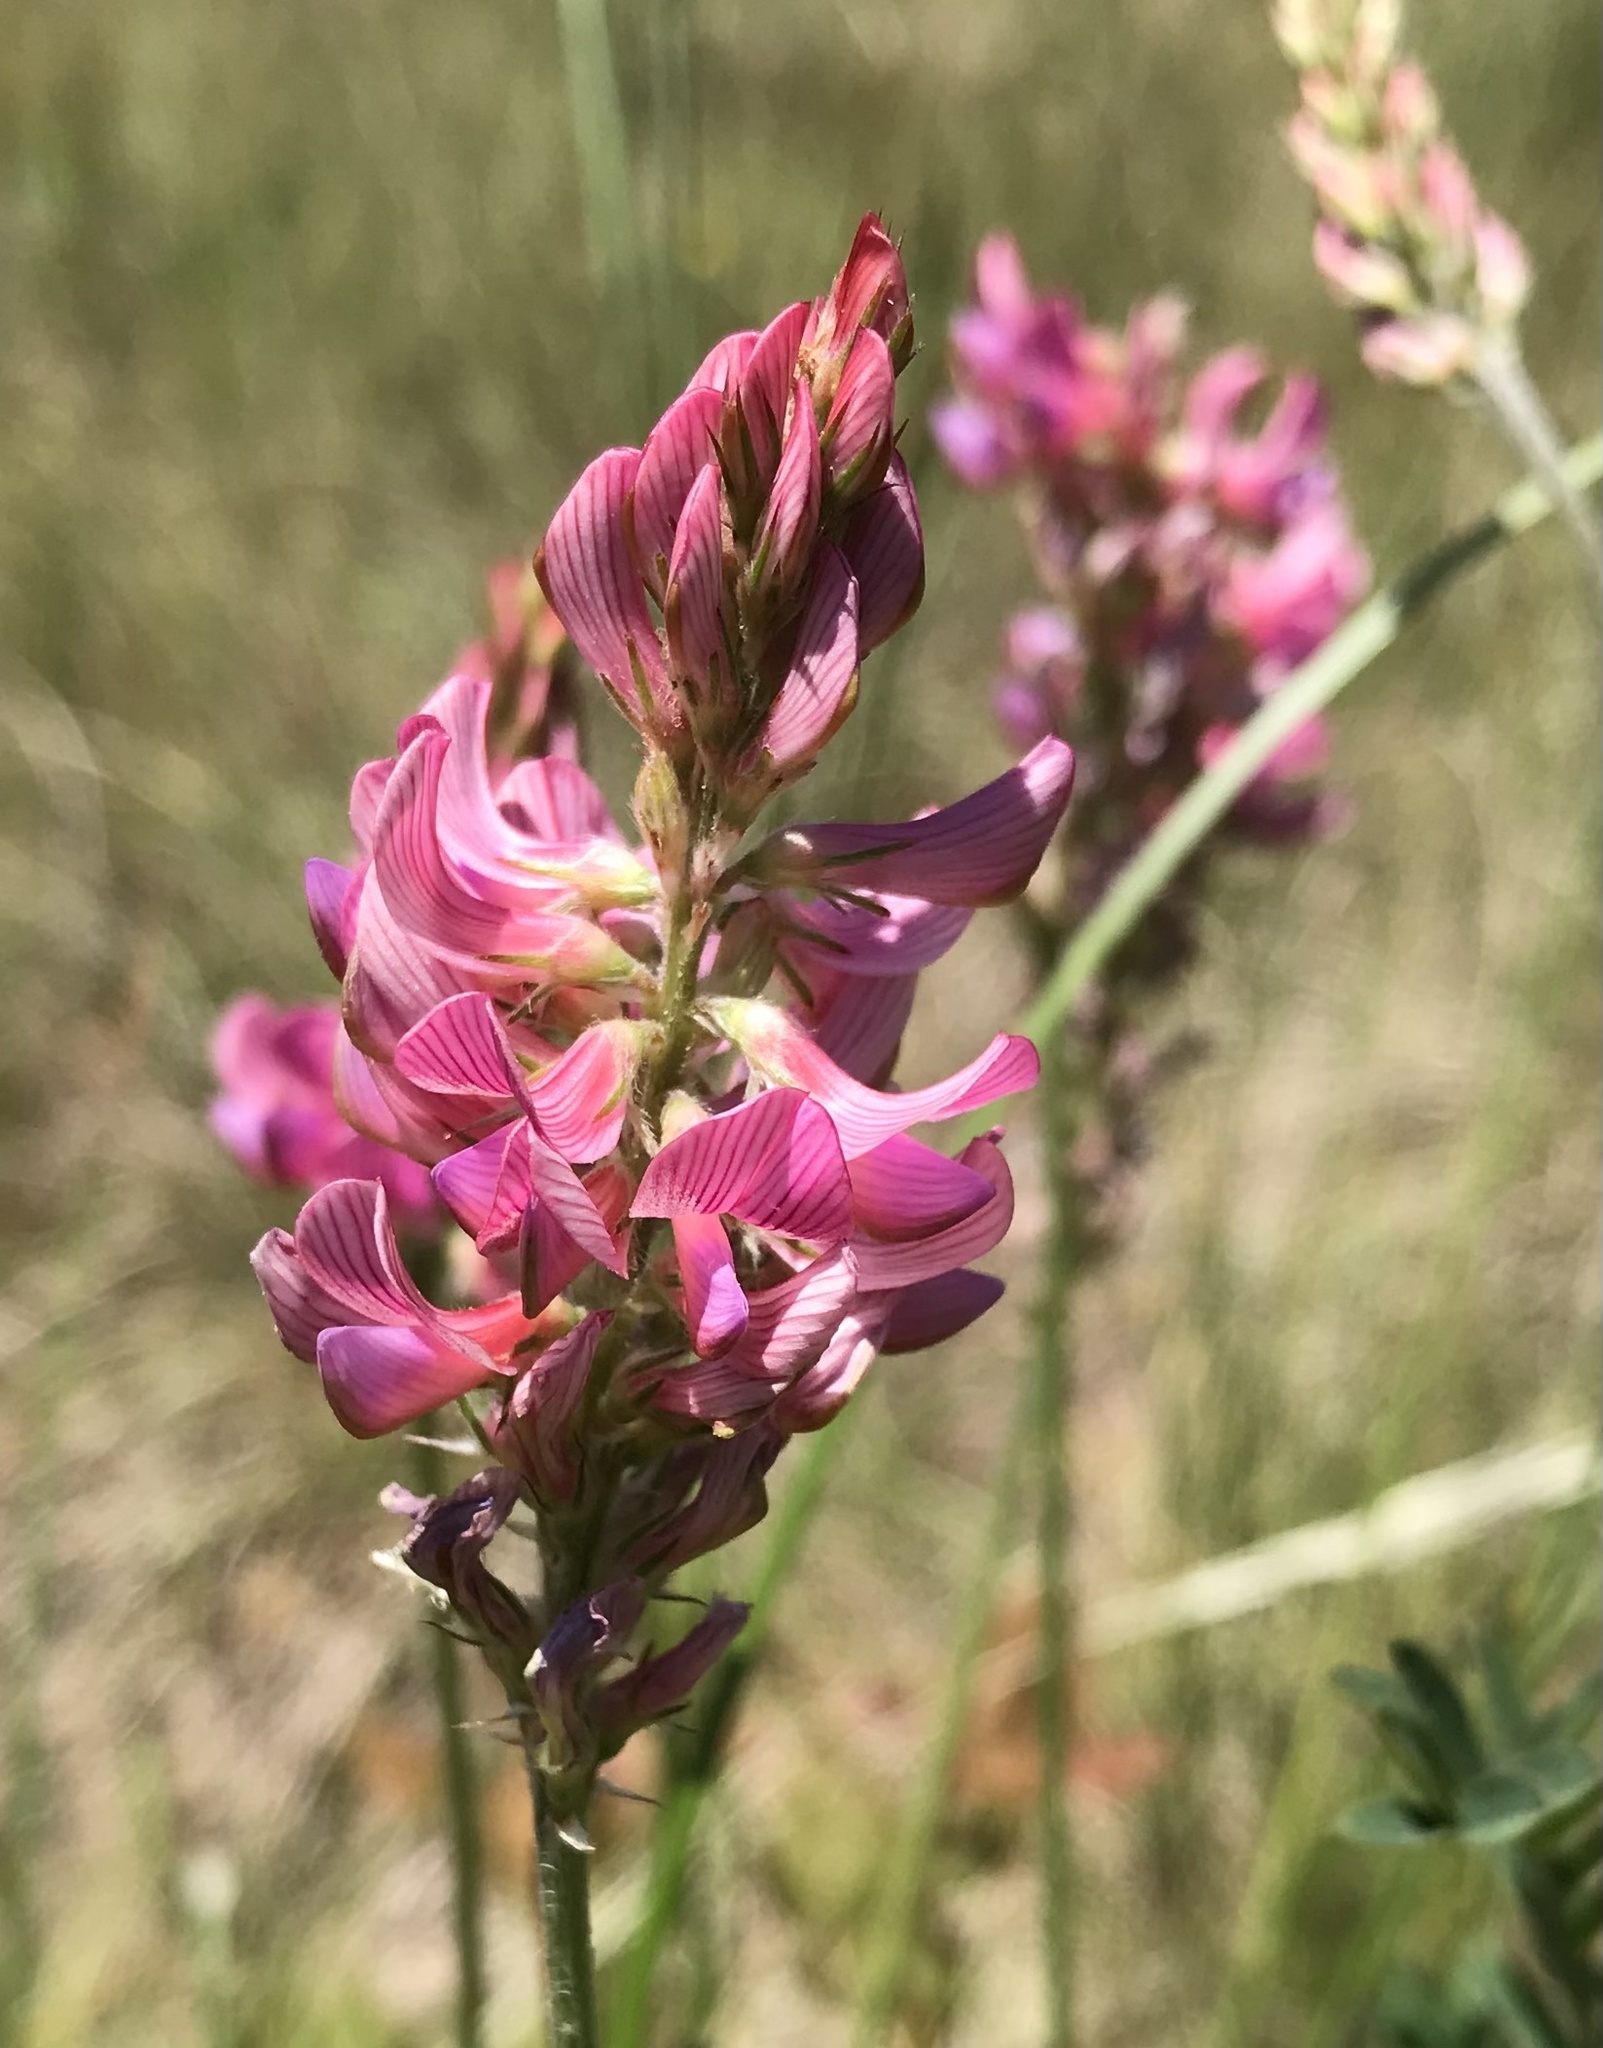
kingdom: Plantae
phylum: Tracheophyta
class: Magnoliopsida
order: Fabales
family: Fabaceae
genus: Onobrychis
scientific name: Onobrychis viciifolia
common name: Sainfoin
